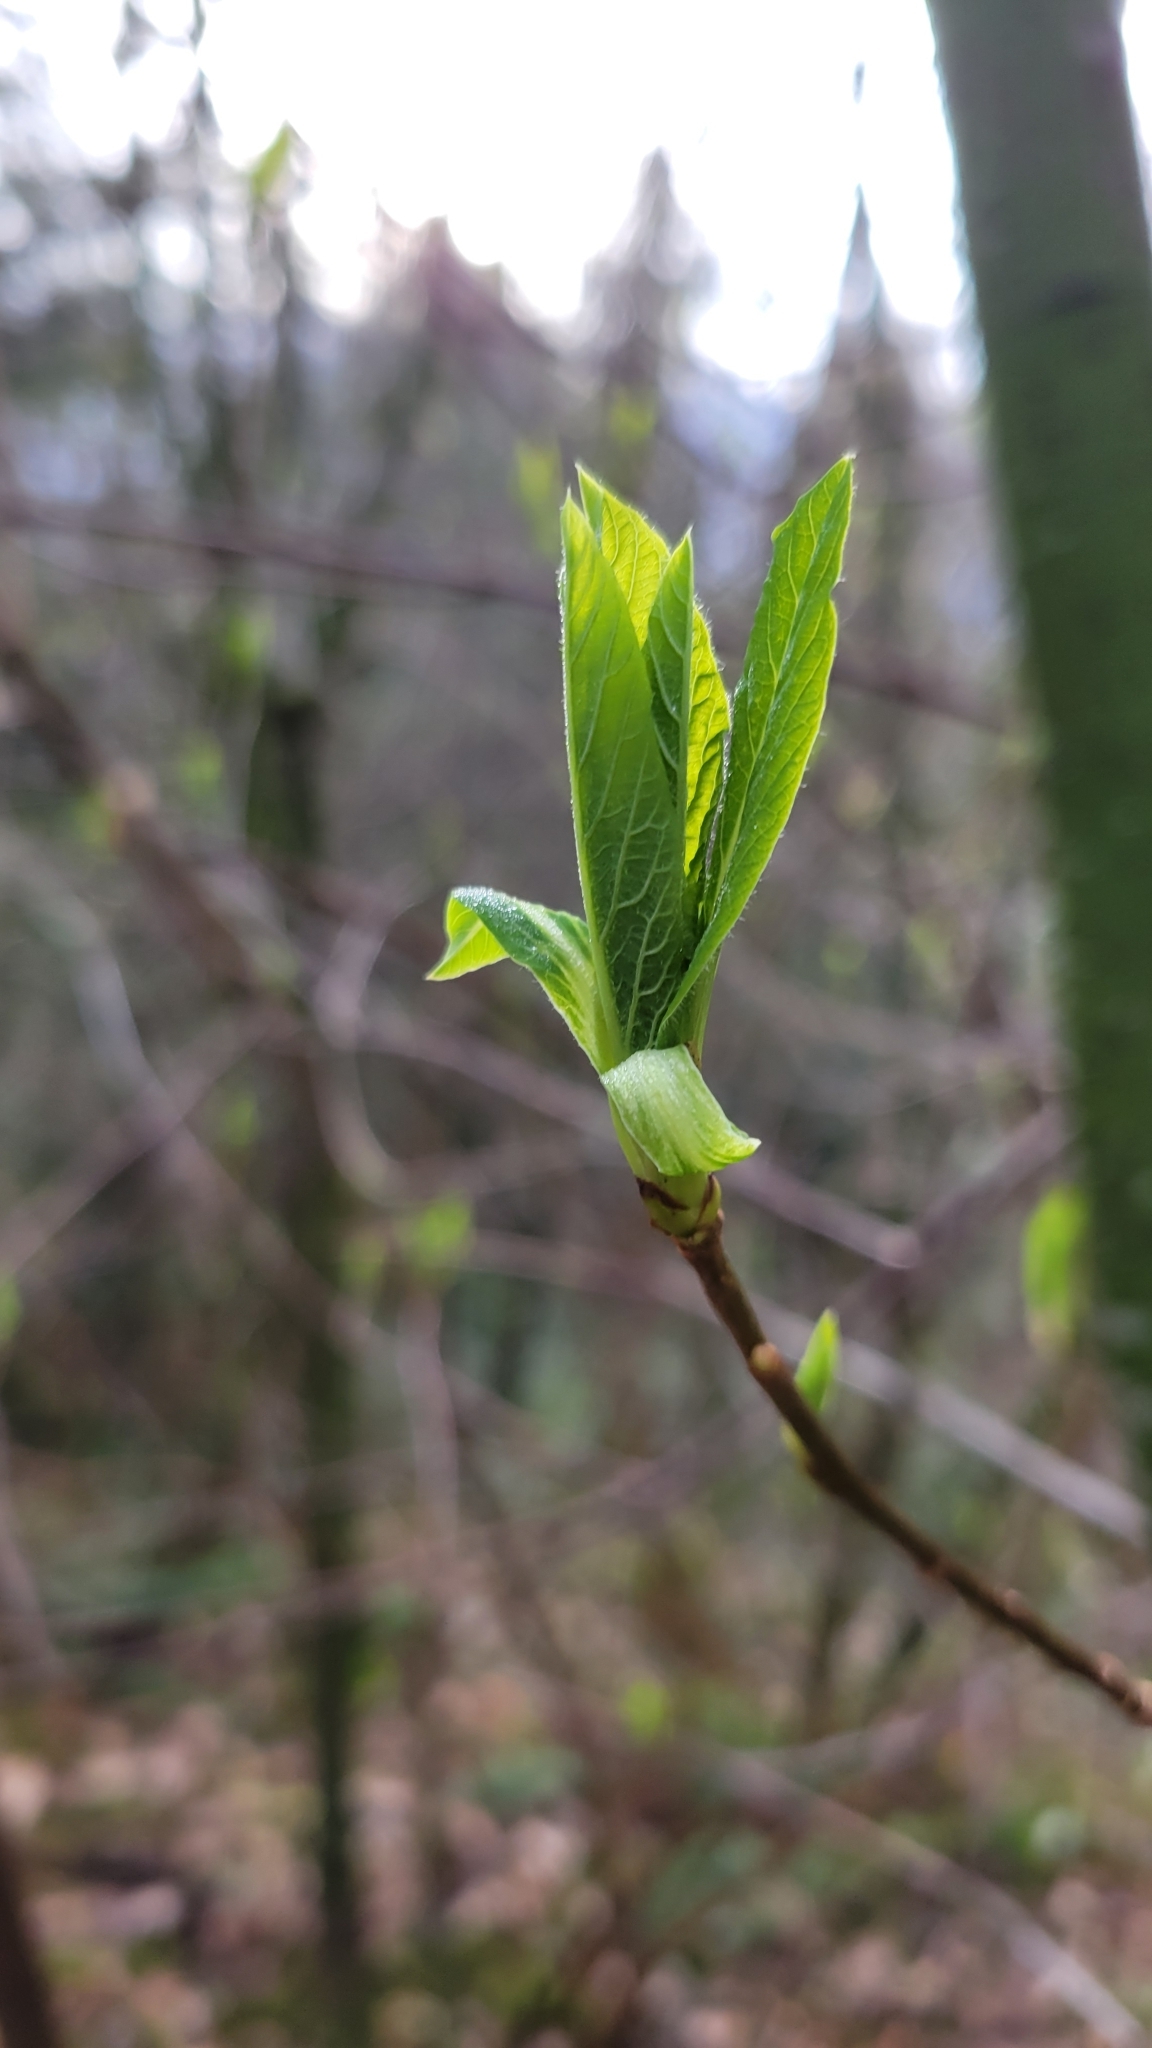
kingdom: Plantae
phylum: Tracheophyta
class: Magnoliopsida
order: Rosales
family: Rosaceae
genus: Oemleria
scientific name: Oemleria cerasiformis
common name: Osoberry
